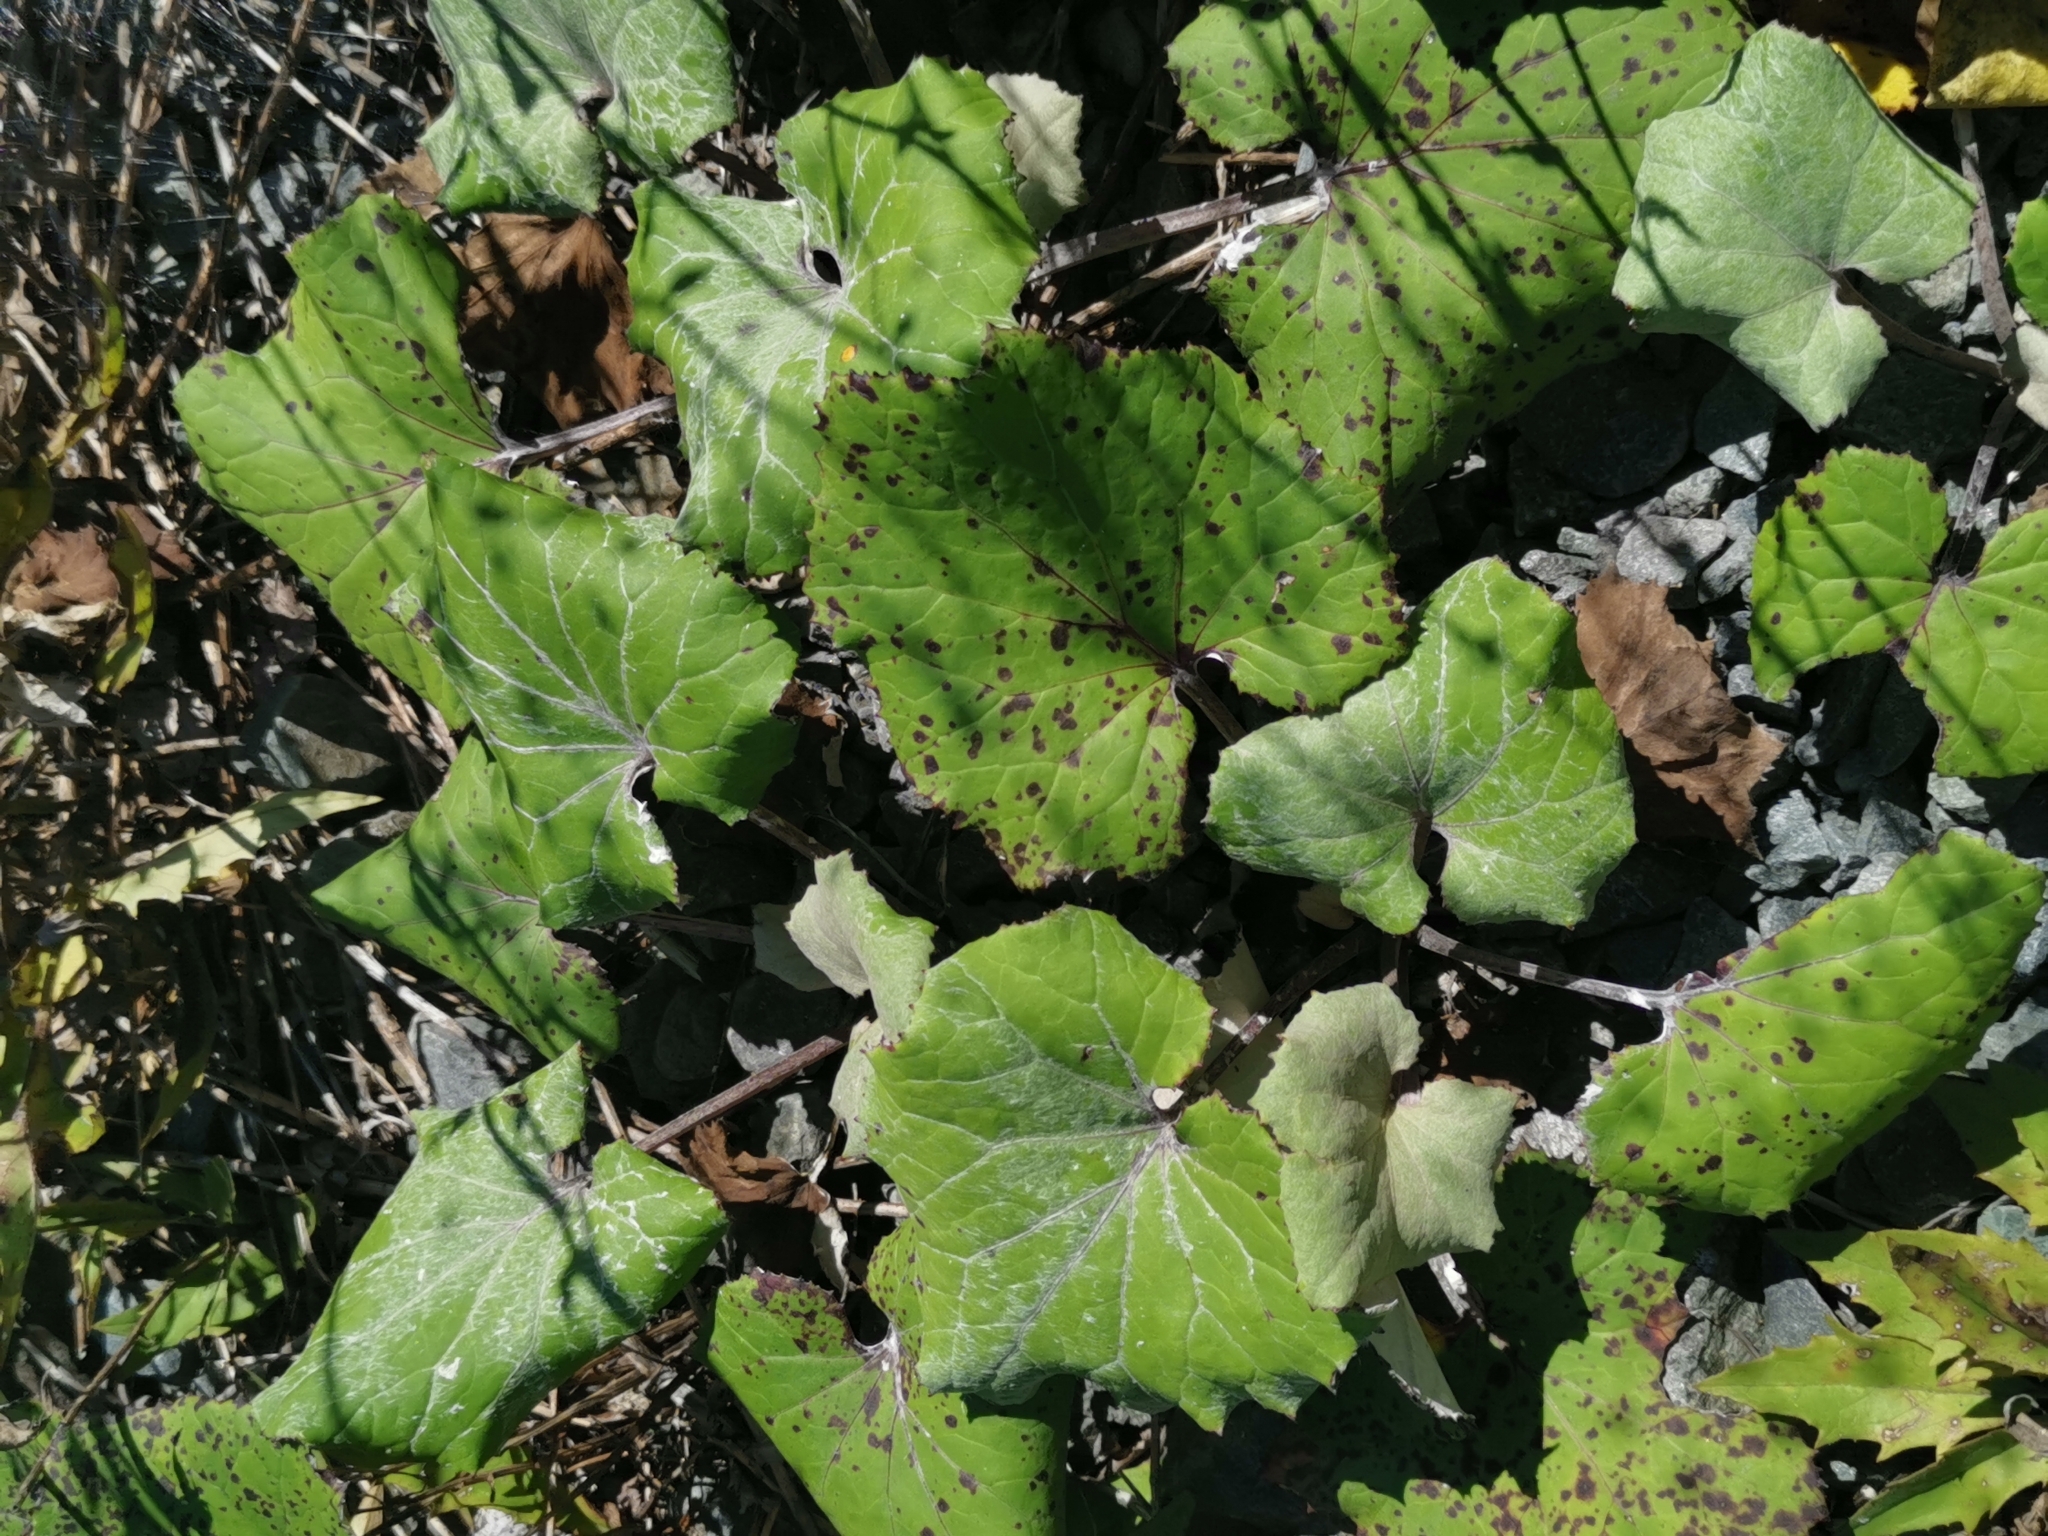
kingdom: Plantae
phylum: Tracheophyta
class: Magnoliopsida
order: Asterales
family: Asteraceae
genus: Tussilago
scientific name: Tussilago farfara
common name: Coltsfoot
